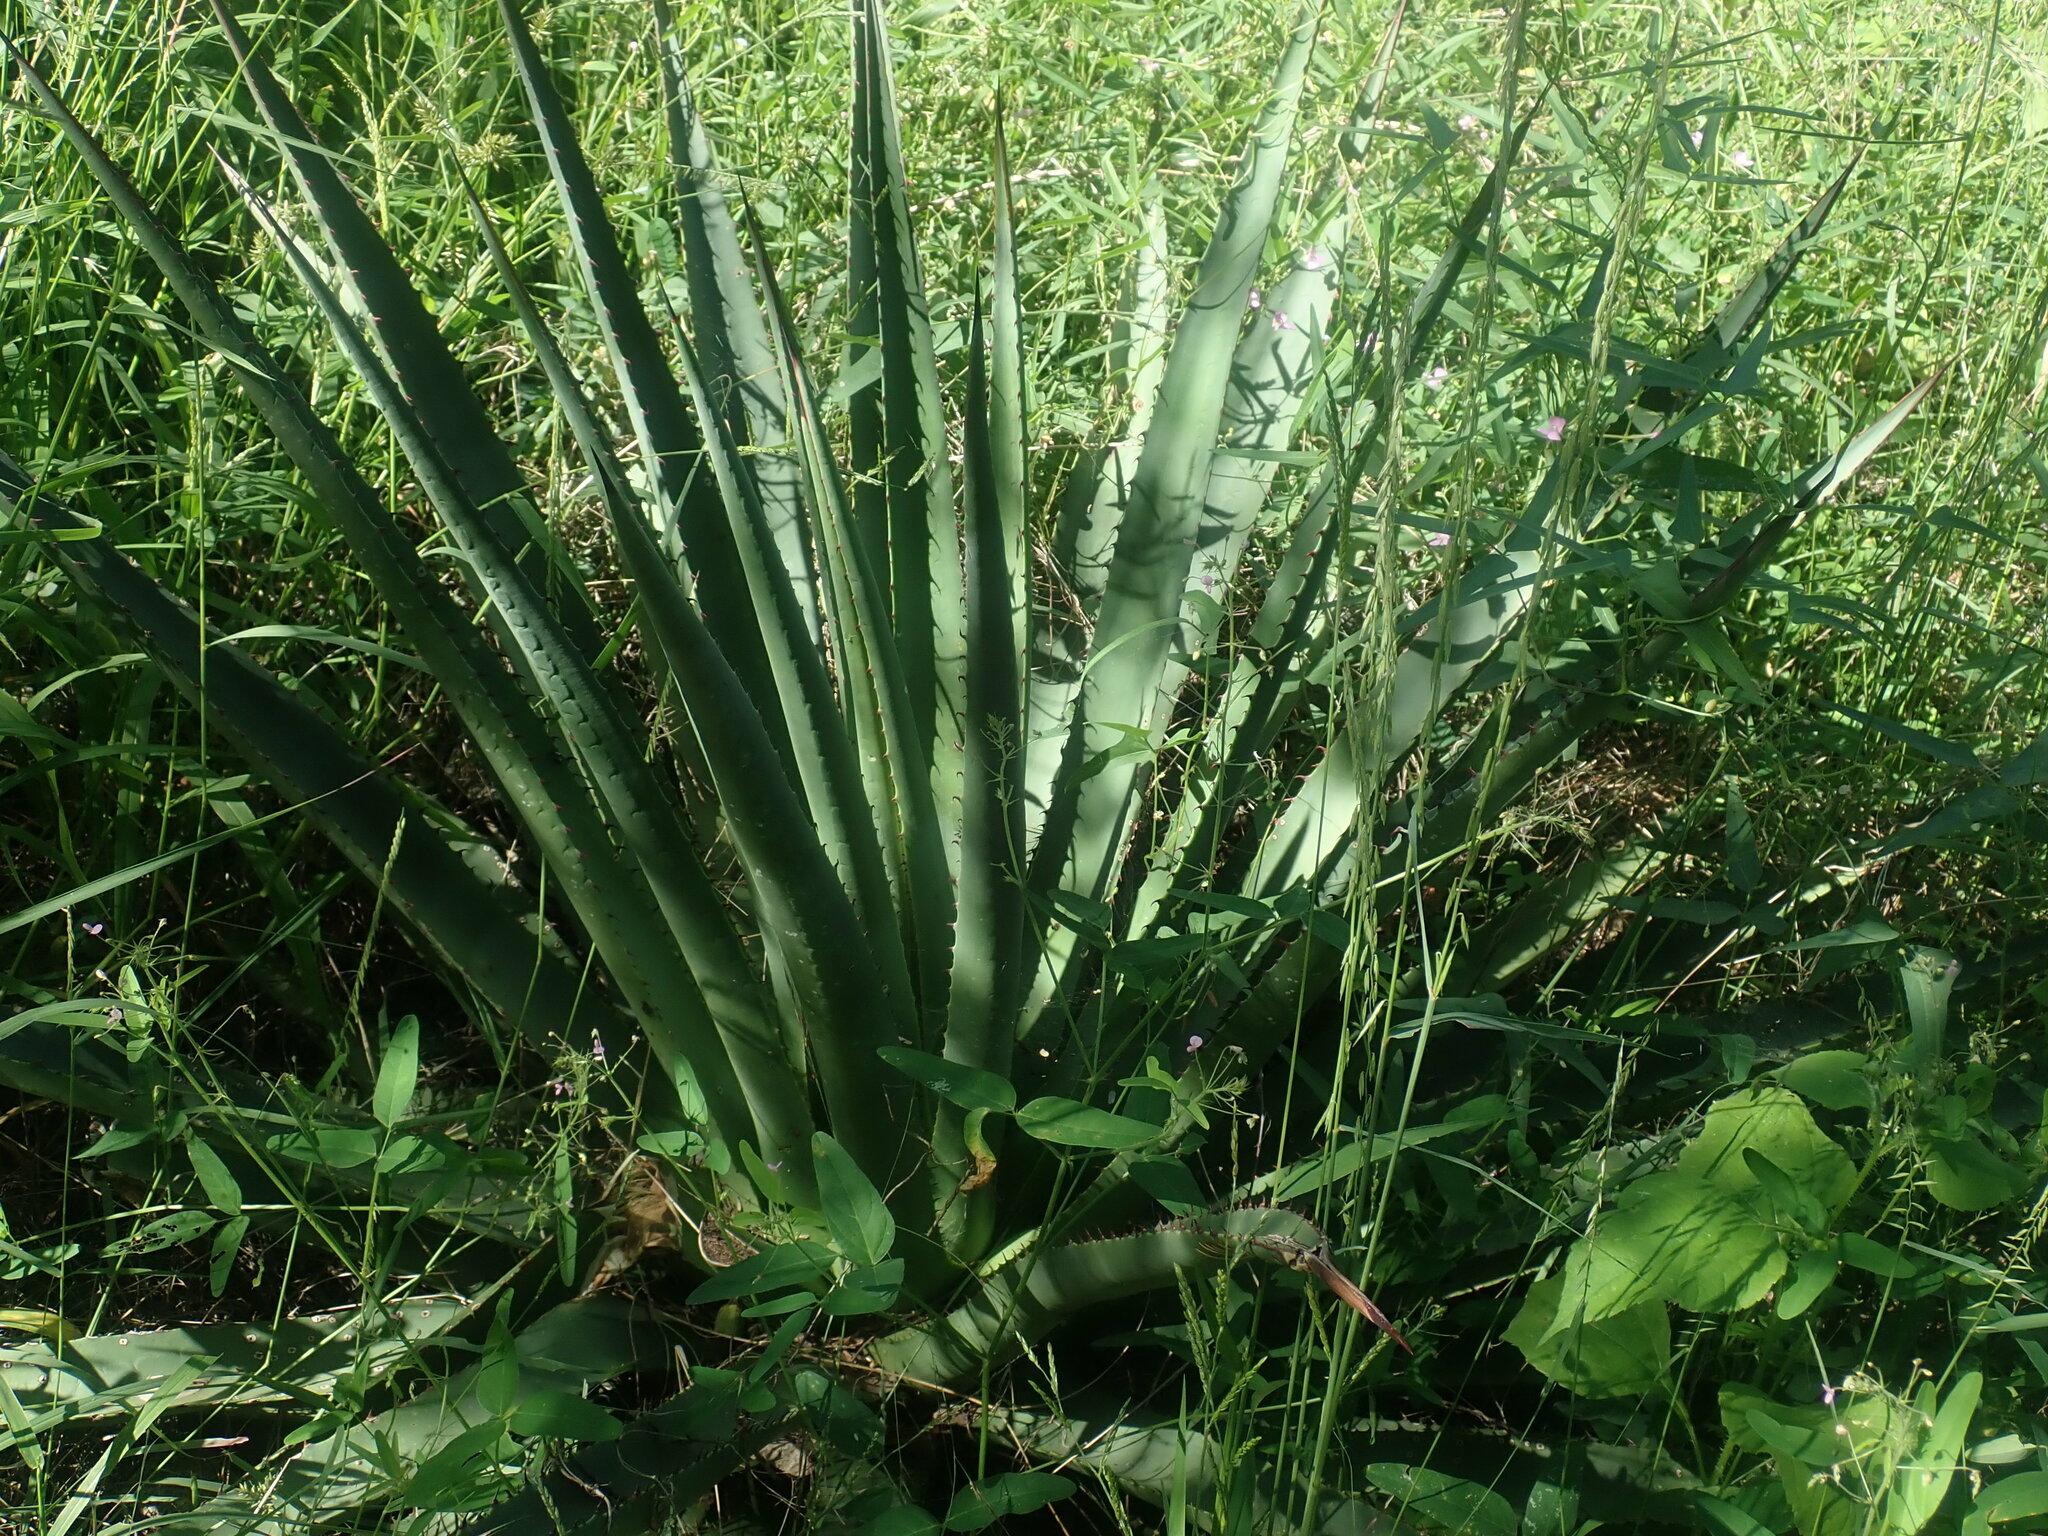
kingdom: Plantae
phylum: Tracheophyta
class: Liliopsida
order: Asparagales
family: Asparagaceae
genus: Agave
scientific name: Agave palmeri
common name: Palmer agave
